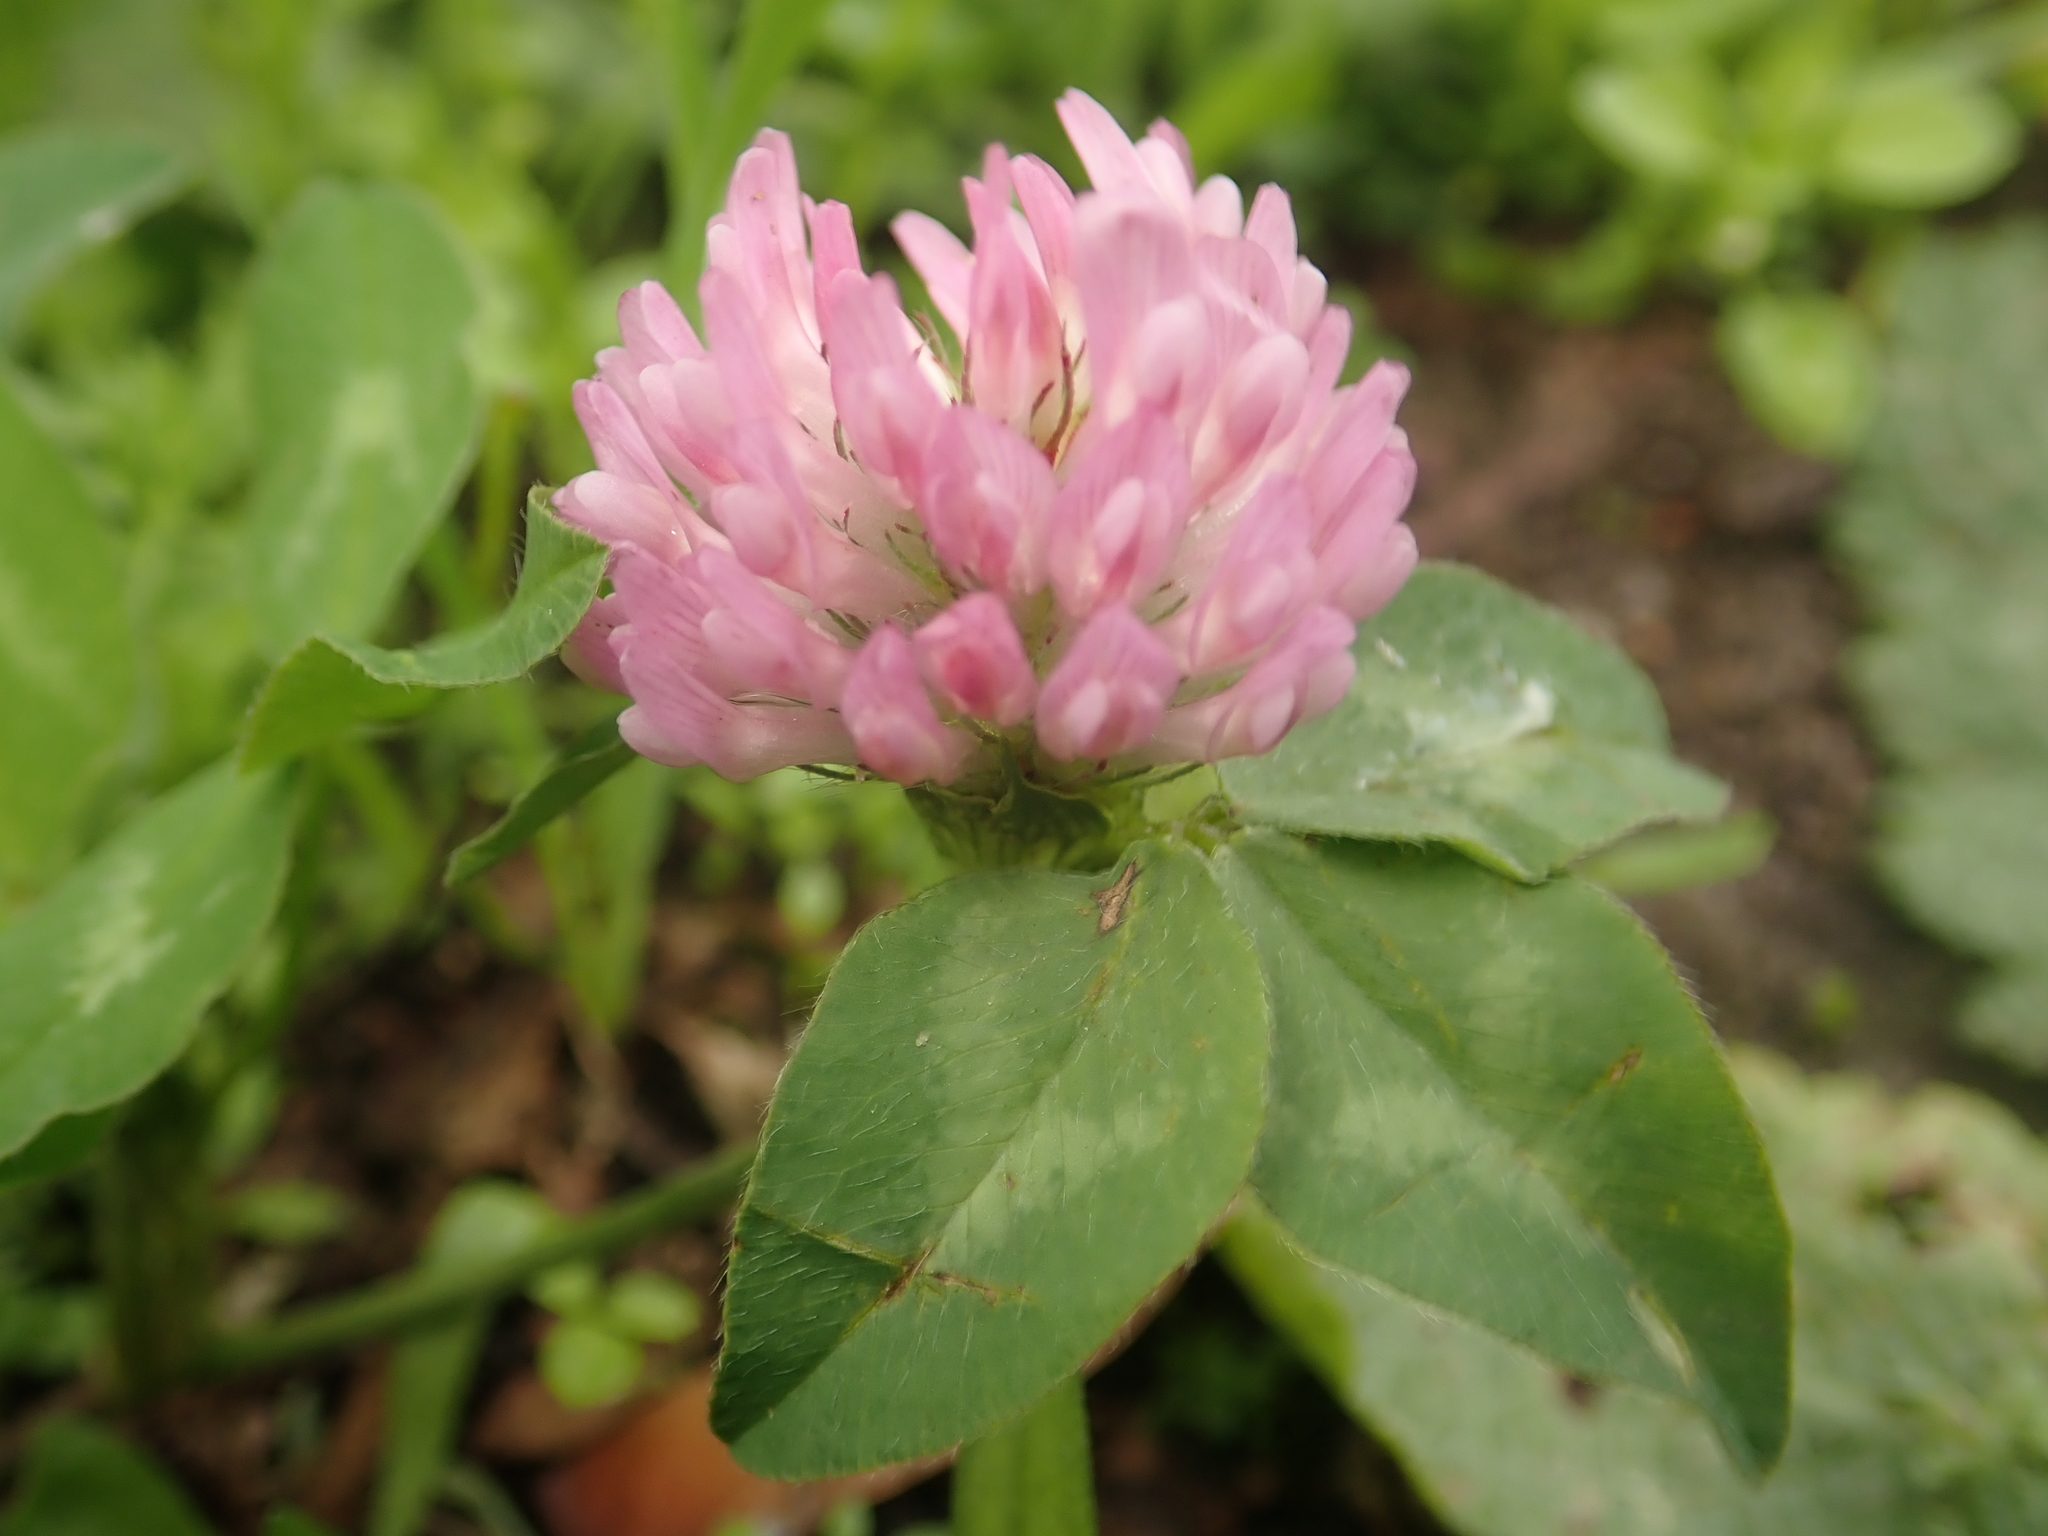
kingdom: Plantae
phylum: Tracheophyta
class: Magnoliopsida
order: Fabales
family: Fabaceae
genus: Trifolium
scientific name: Trifolium pratense
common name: Red clover
